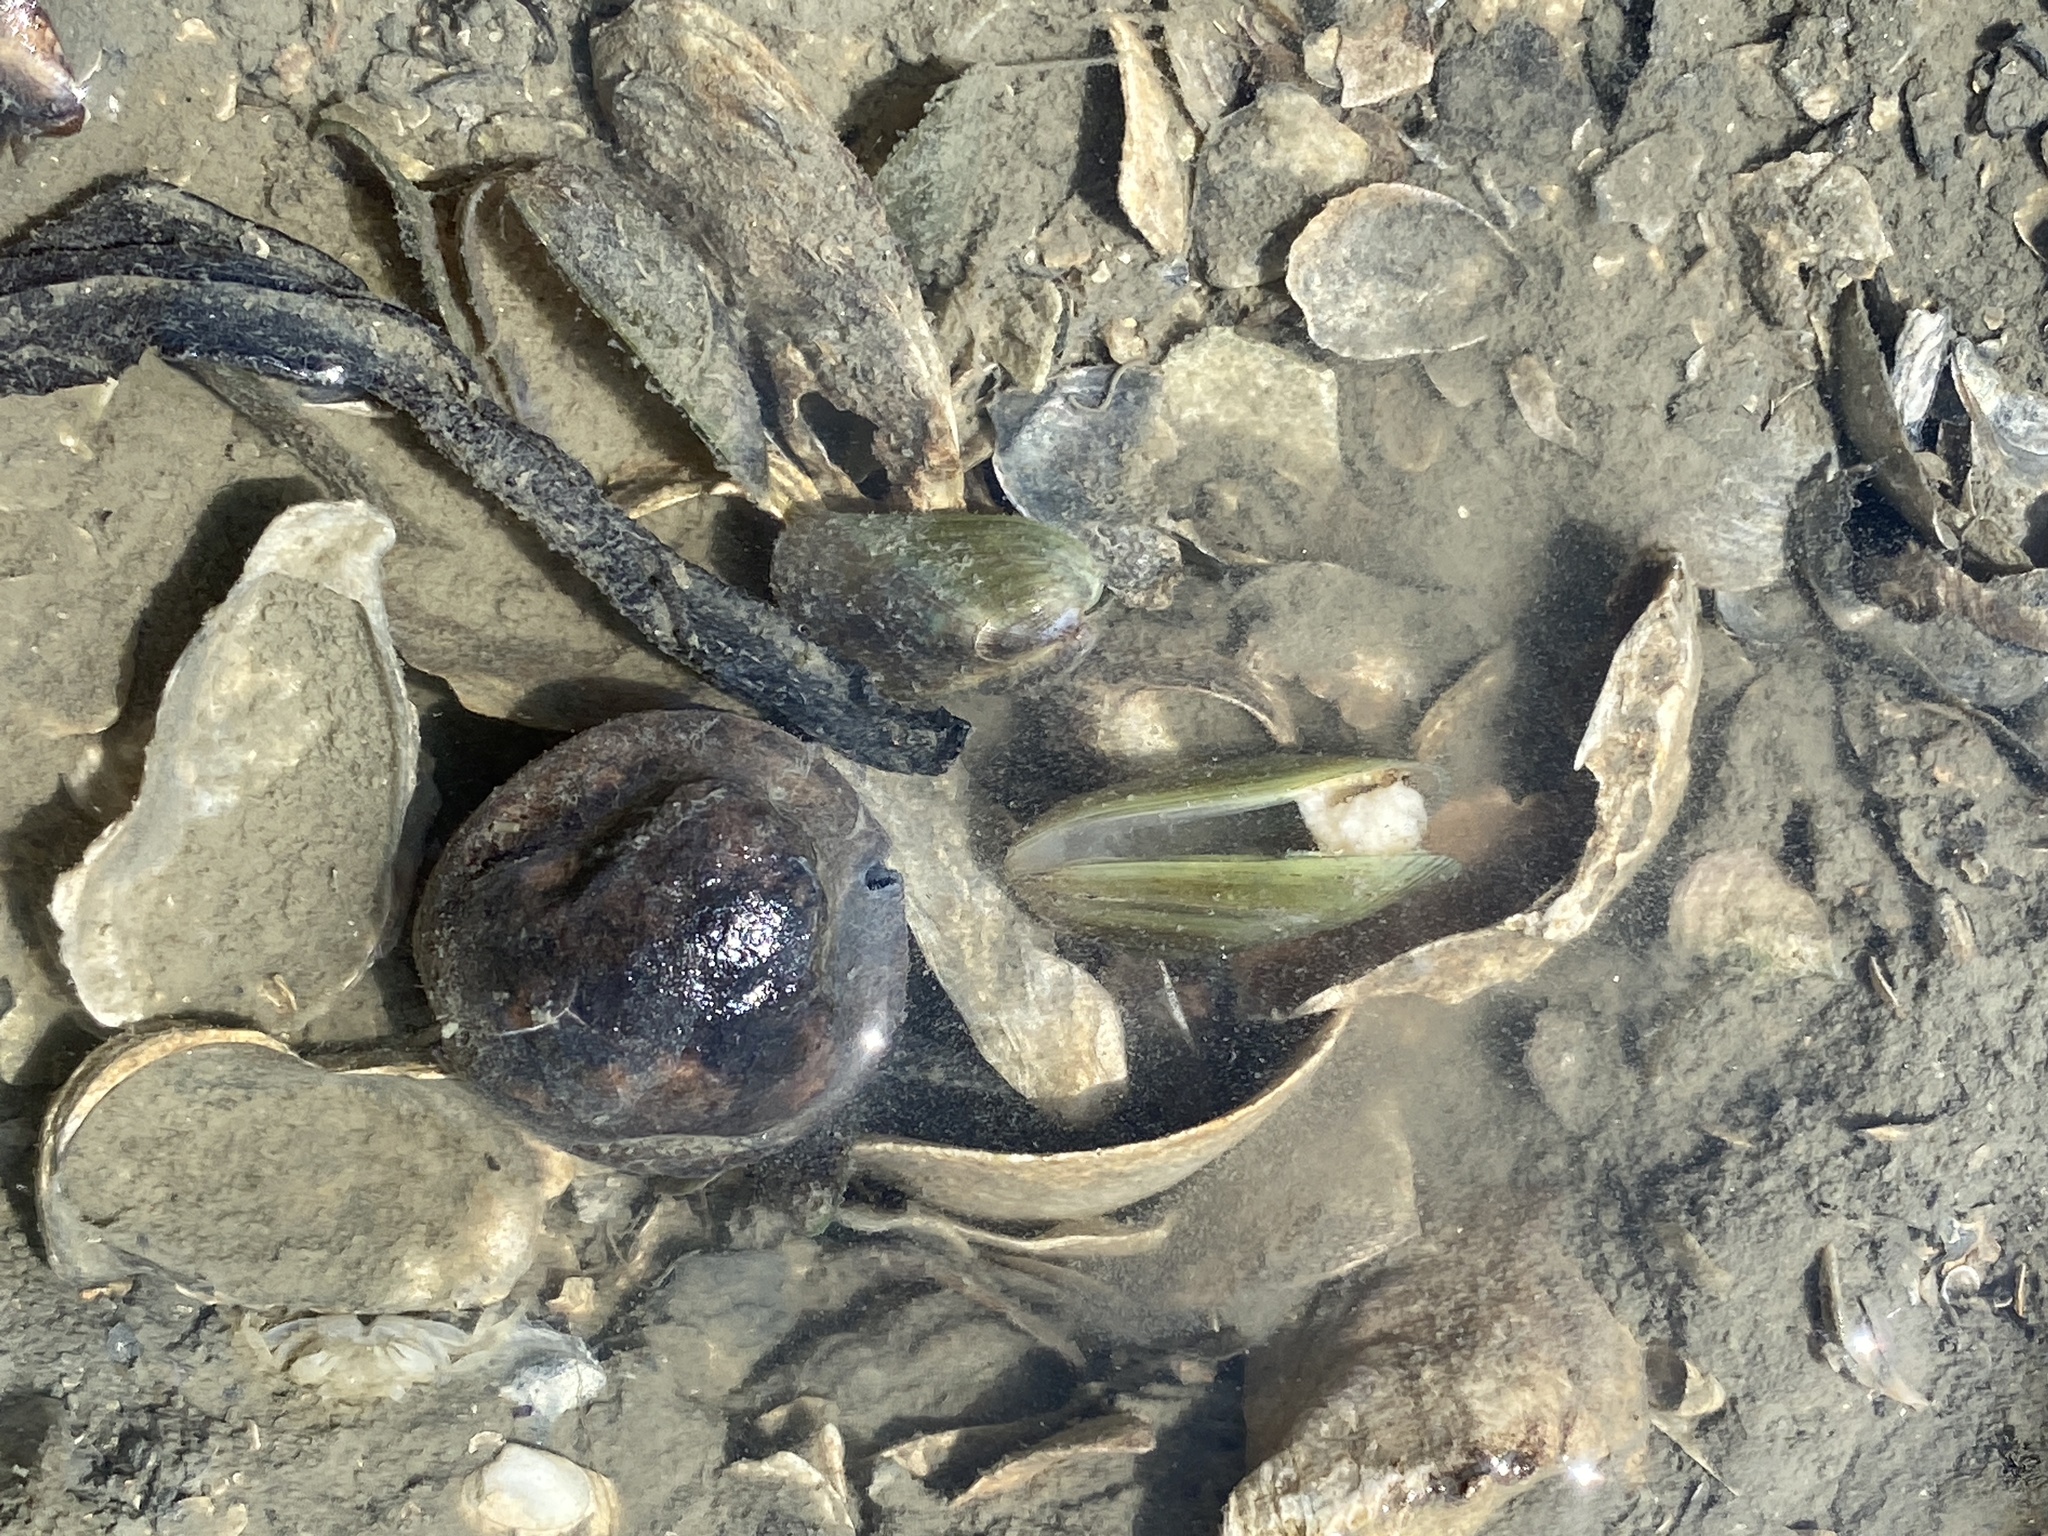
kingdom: Animalia
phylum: Mollusca
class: Bivalvia
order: Mytilida
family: Mytilidae
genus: Arcuatula
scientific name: Arcuatula senhousia
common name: Asian mussel
